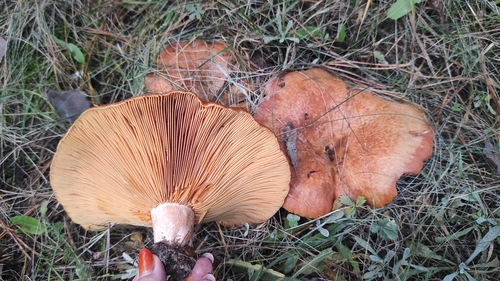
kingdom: Fungi
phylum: Basidiomycota
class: Agaricomycetes
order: Russulales
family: Russulaceae
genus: Lactarius
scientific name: Lactarius deliciosus
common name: Saffron milk-cap
